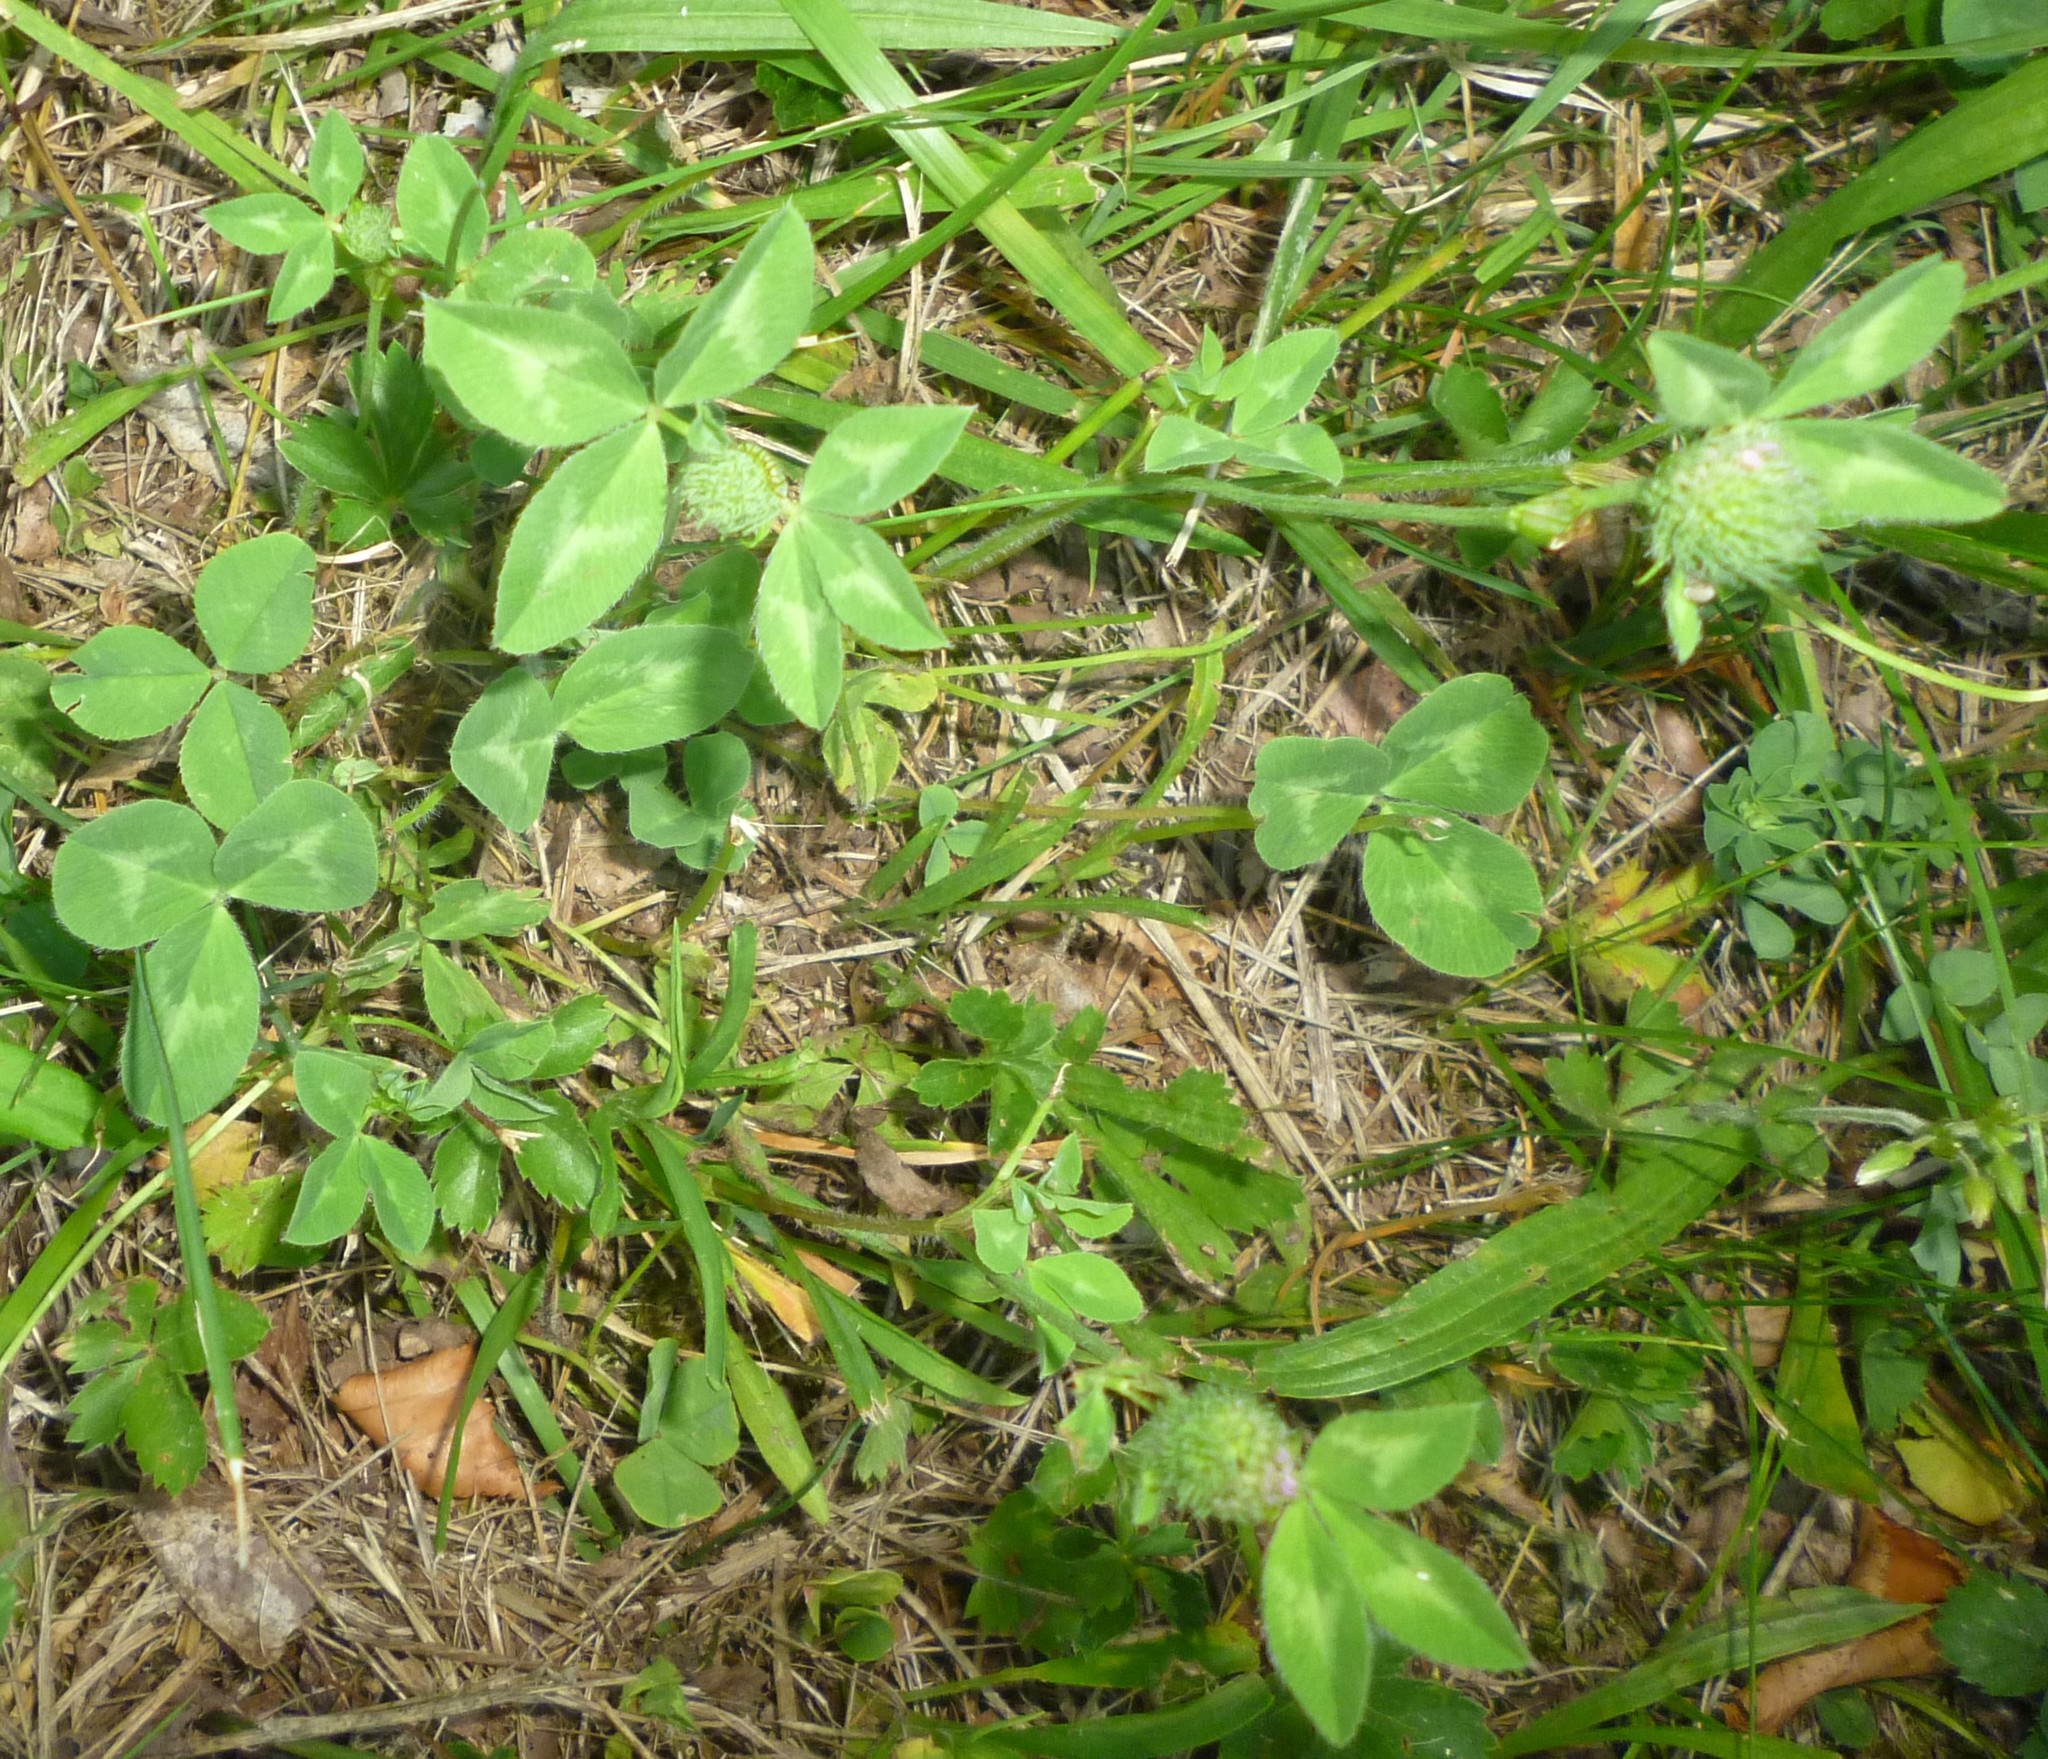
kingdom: Plantae
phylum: Tracheophyta
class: Magnoliopsida
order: Fabales
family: Fabaceae
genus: Trifolium
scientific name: Trifolium pratense
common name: Red clover
